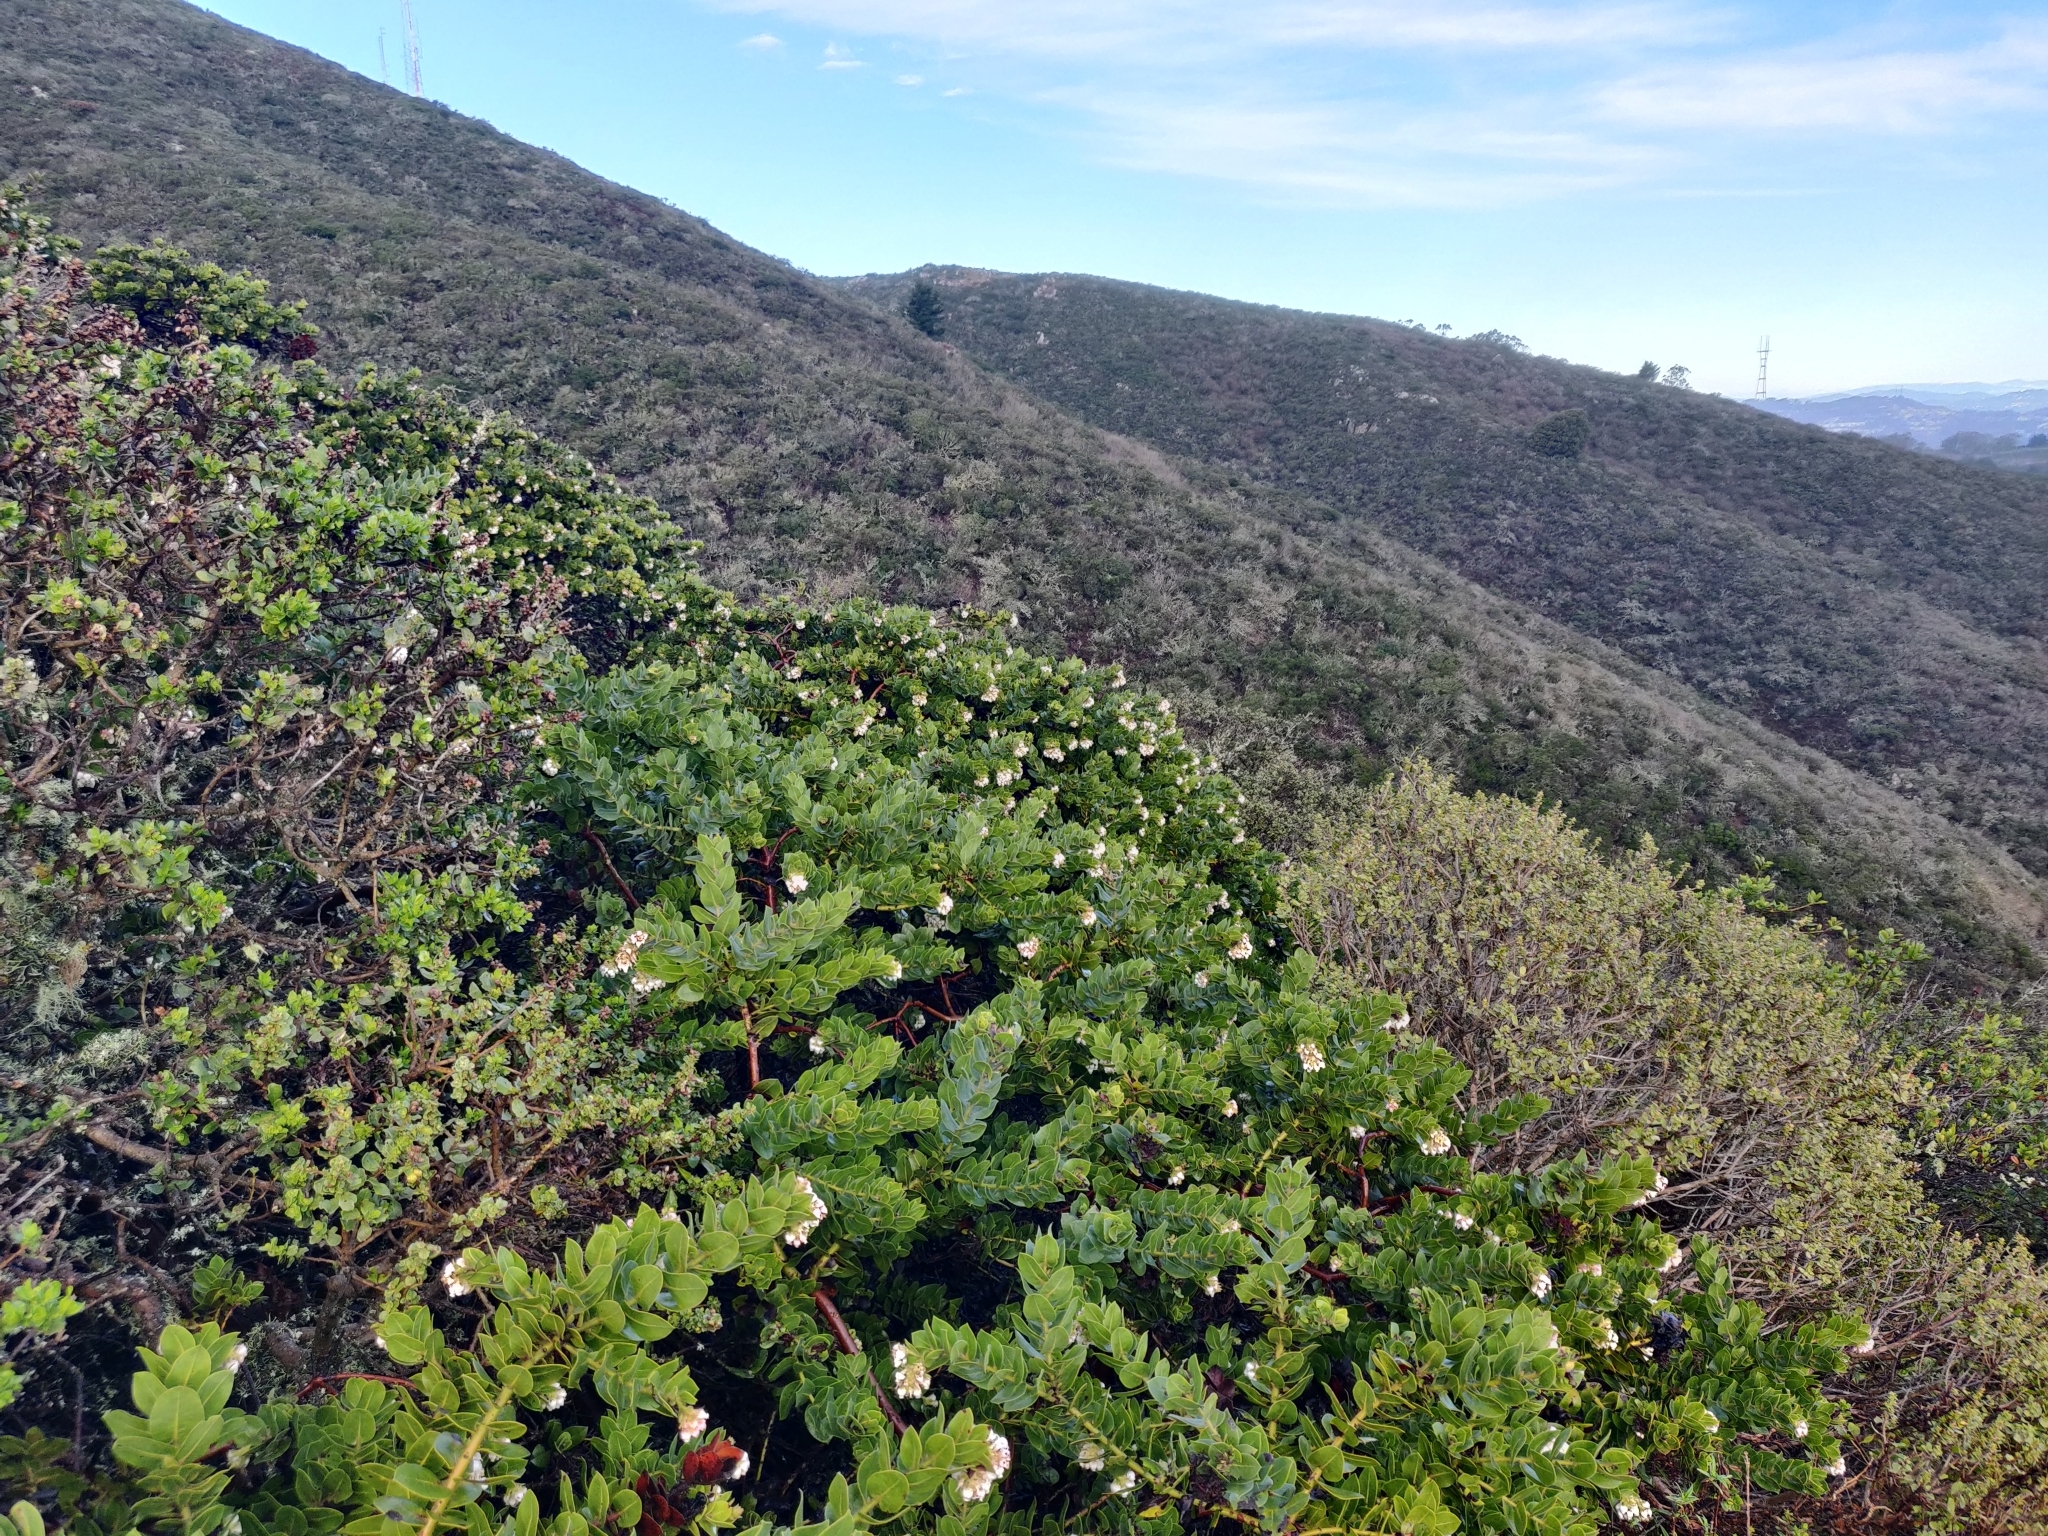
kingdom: Plantae
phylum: Tracheophyta
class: Magnoliopsida
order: Ericales
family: Ericaceae
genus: Arctostaphylos
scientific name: Arctostaphylos imbricata
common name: San bruno mountain manzanita
